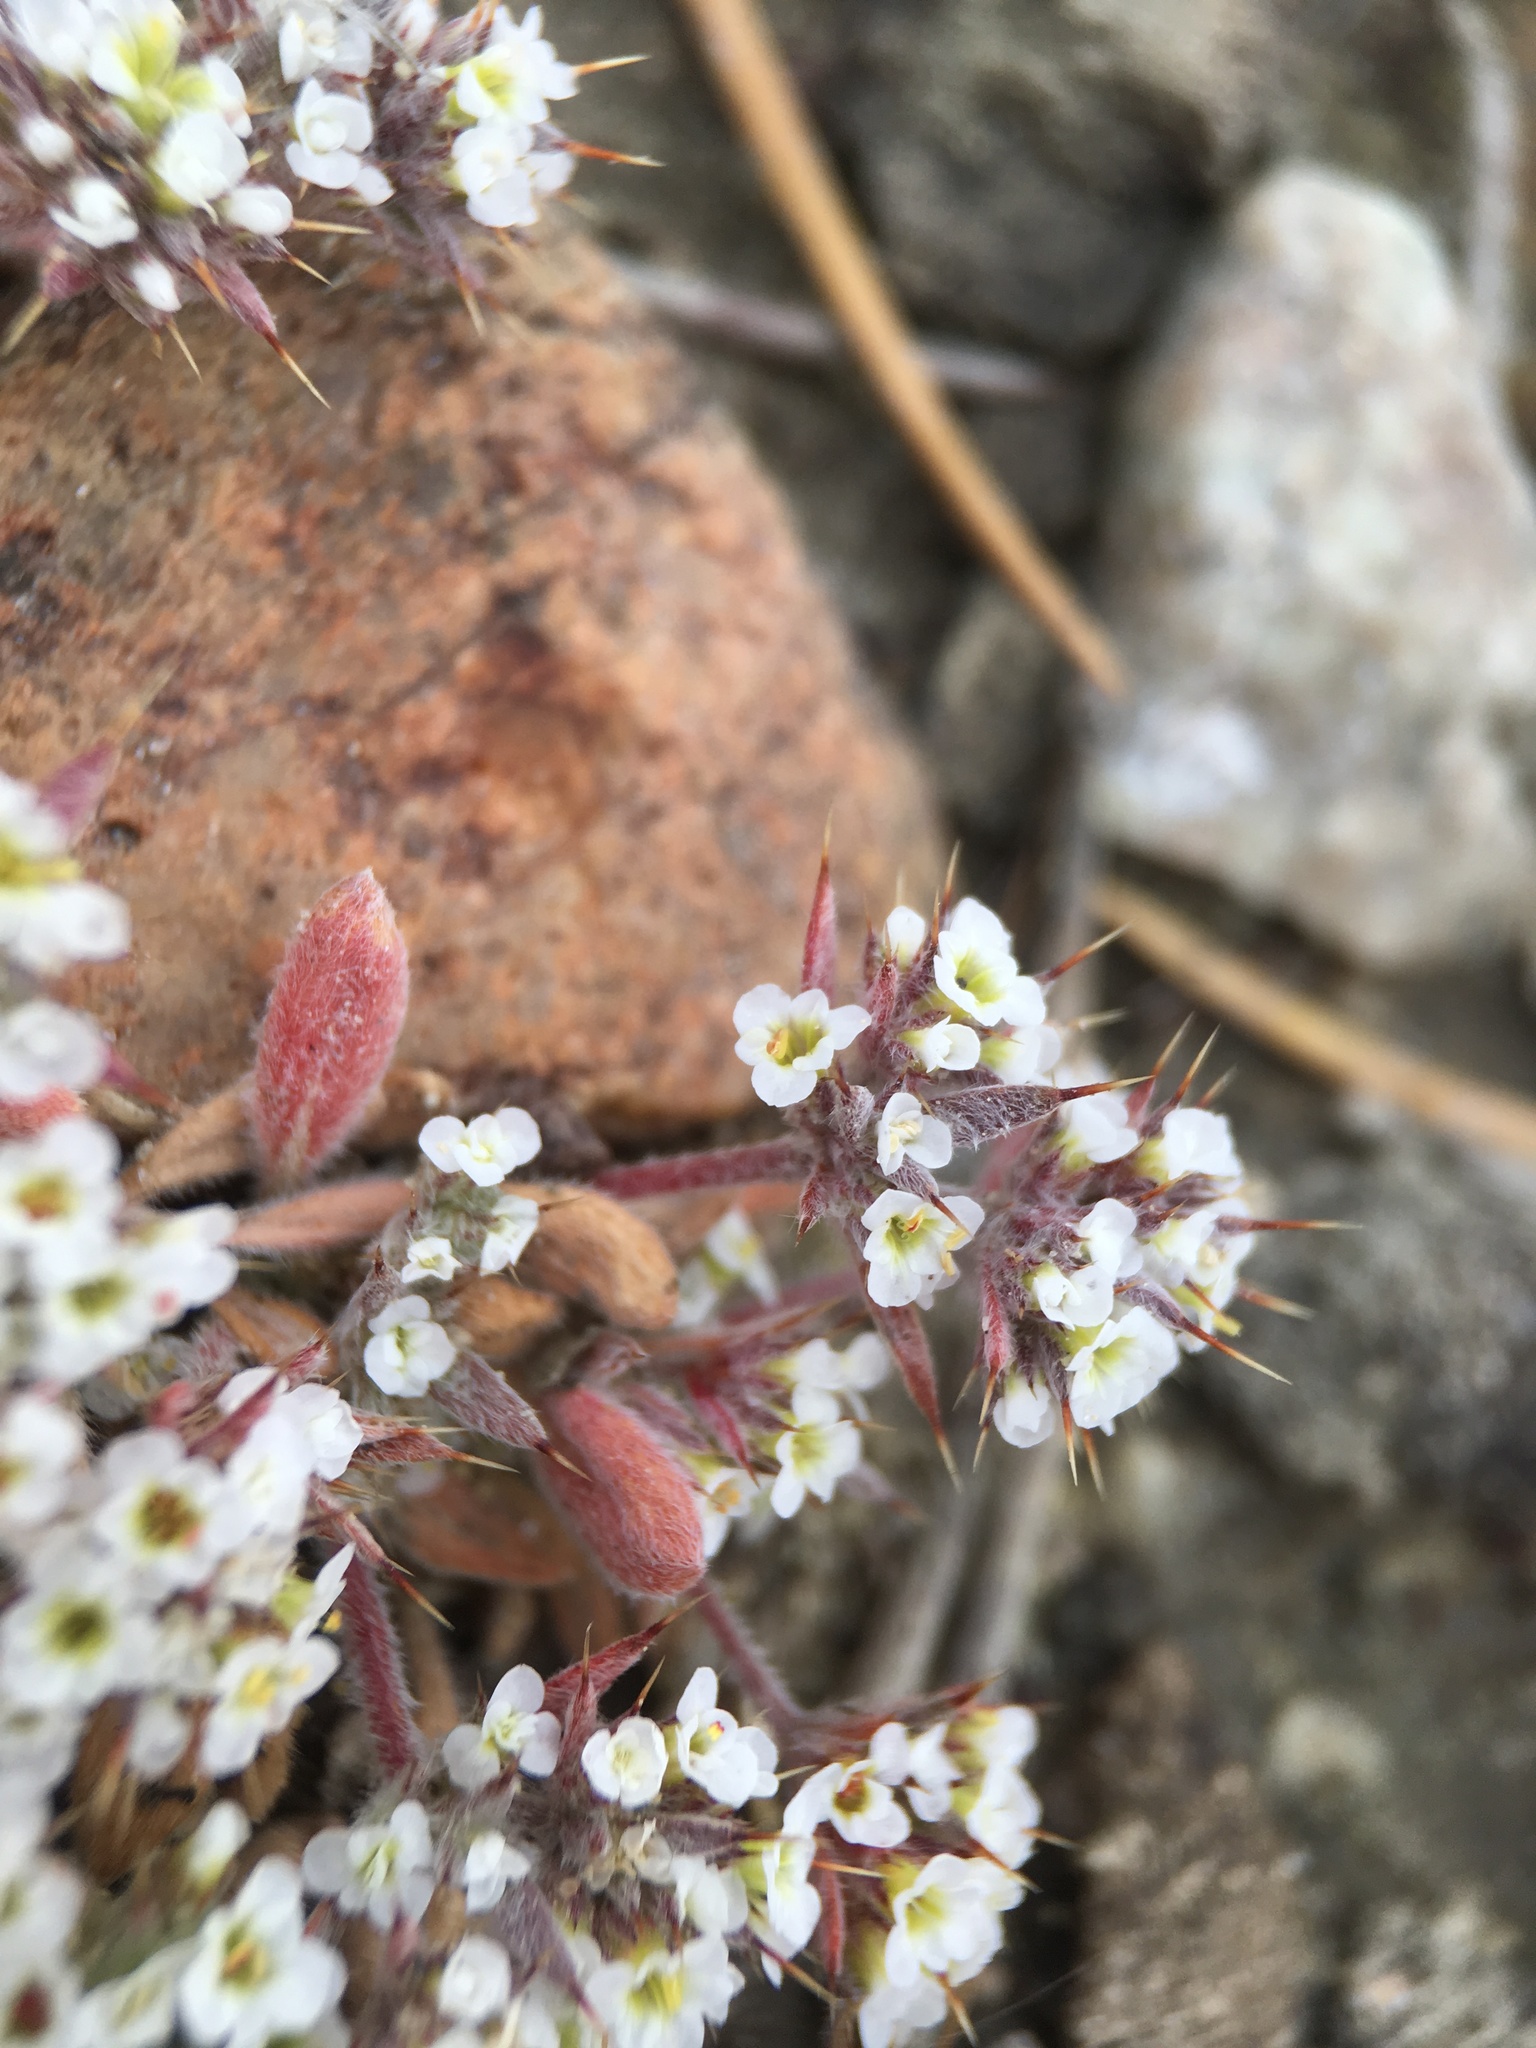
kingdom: Plantae
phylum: Tracheophyta
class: Magnoliopsida
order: Caryophyllales
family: Polygonaceae
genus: Chorizanthe
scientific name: Chorizanthe spinosa
